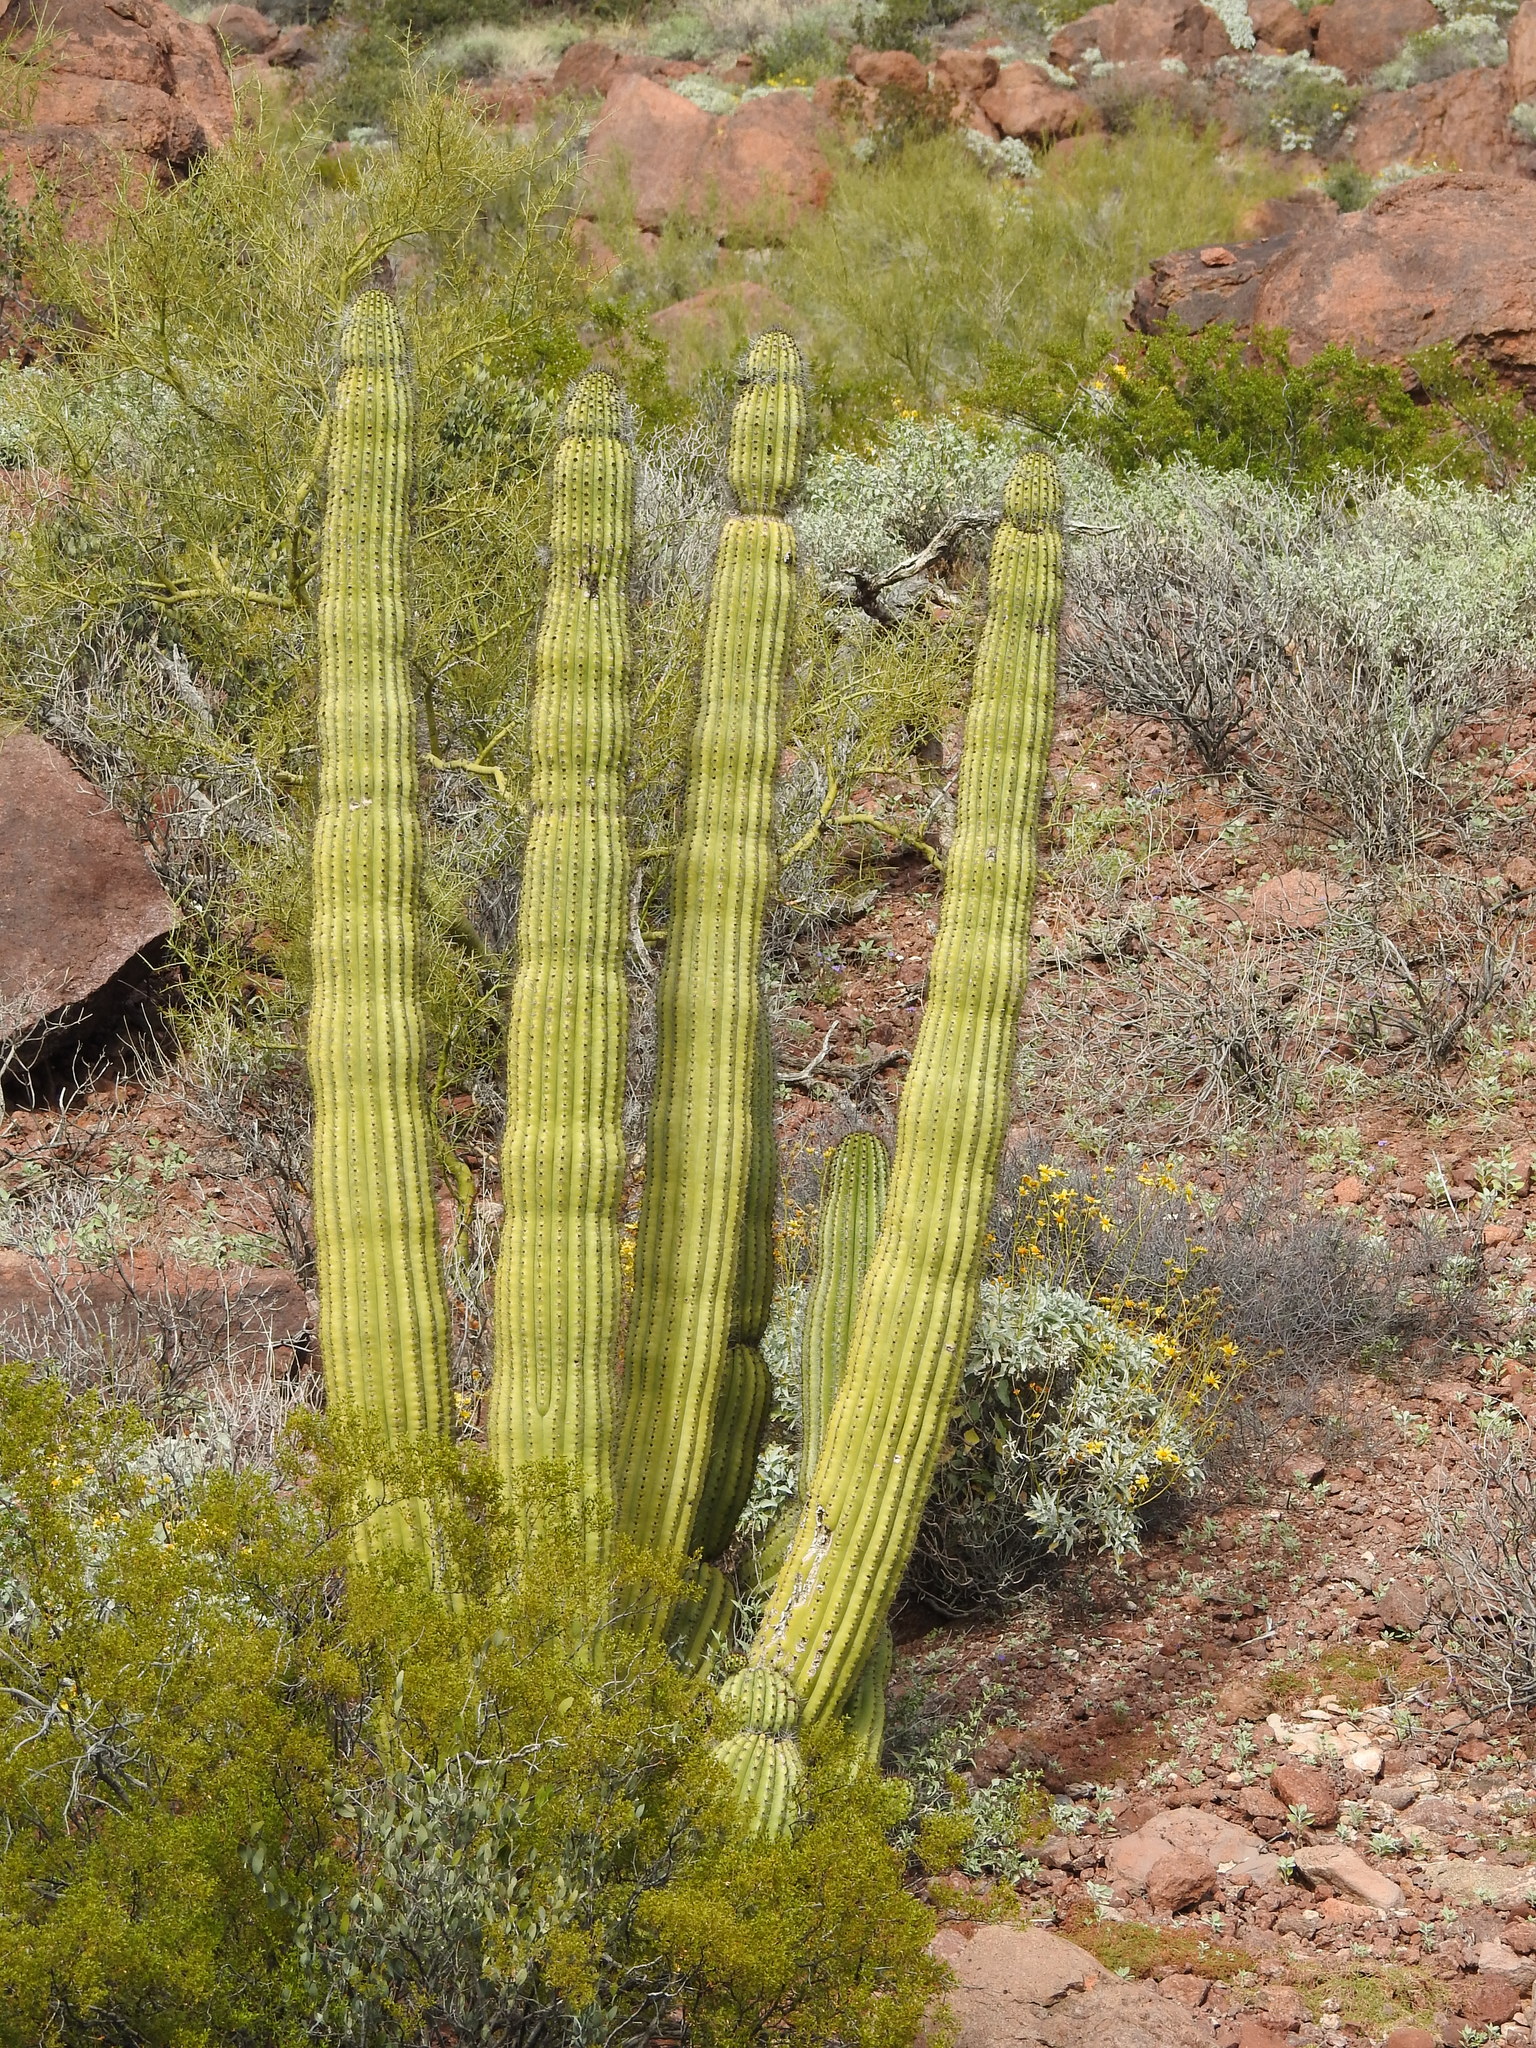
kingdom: Plantae
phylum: Tracheophyta
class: Magnoliopsida
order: Caryophyllales
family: Cactaceae
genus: Stenocereus
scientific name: Stenocereus thurberi
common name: Organ pipe cactus
